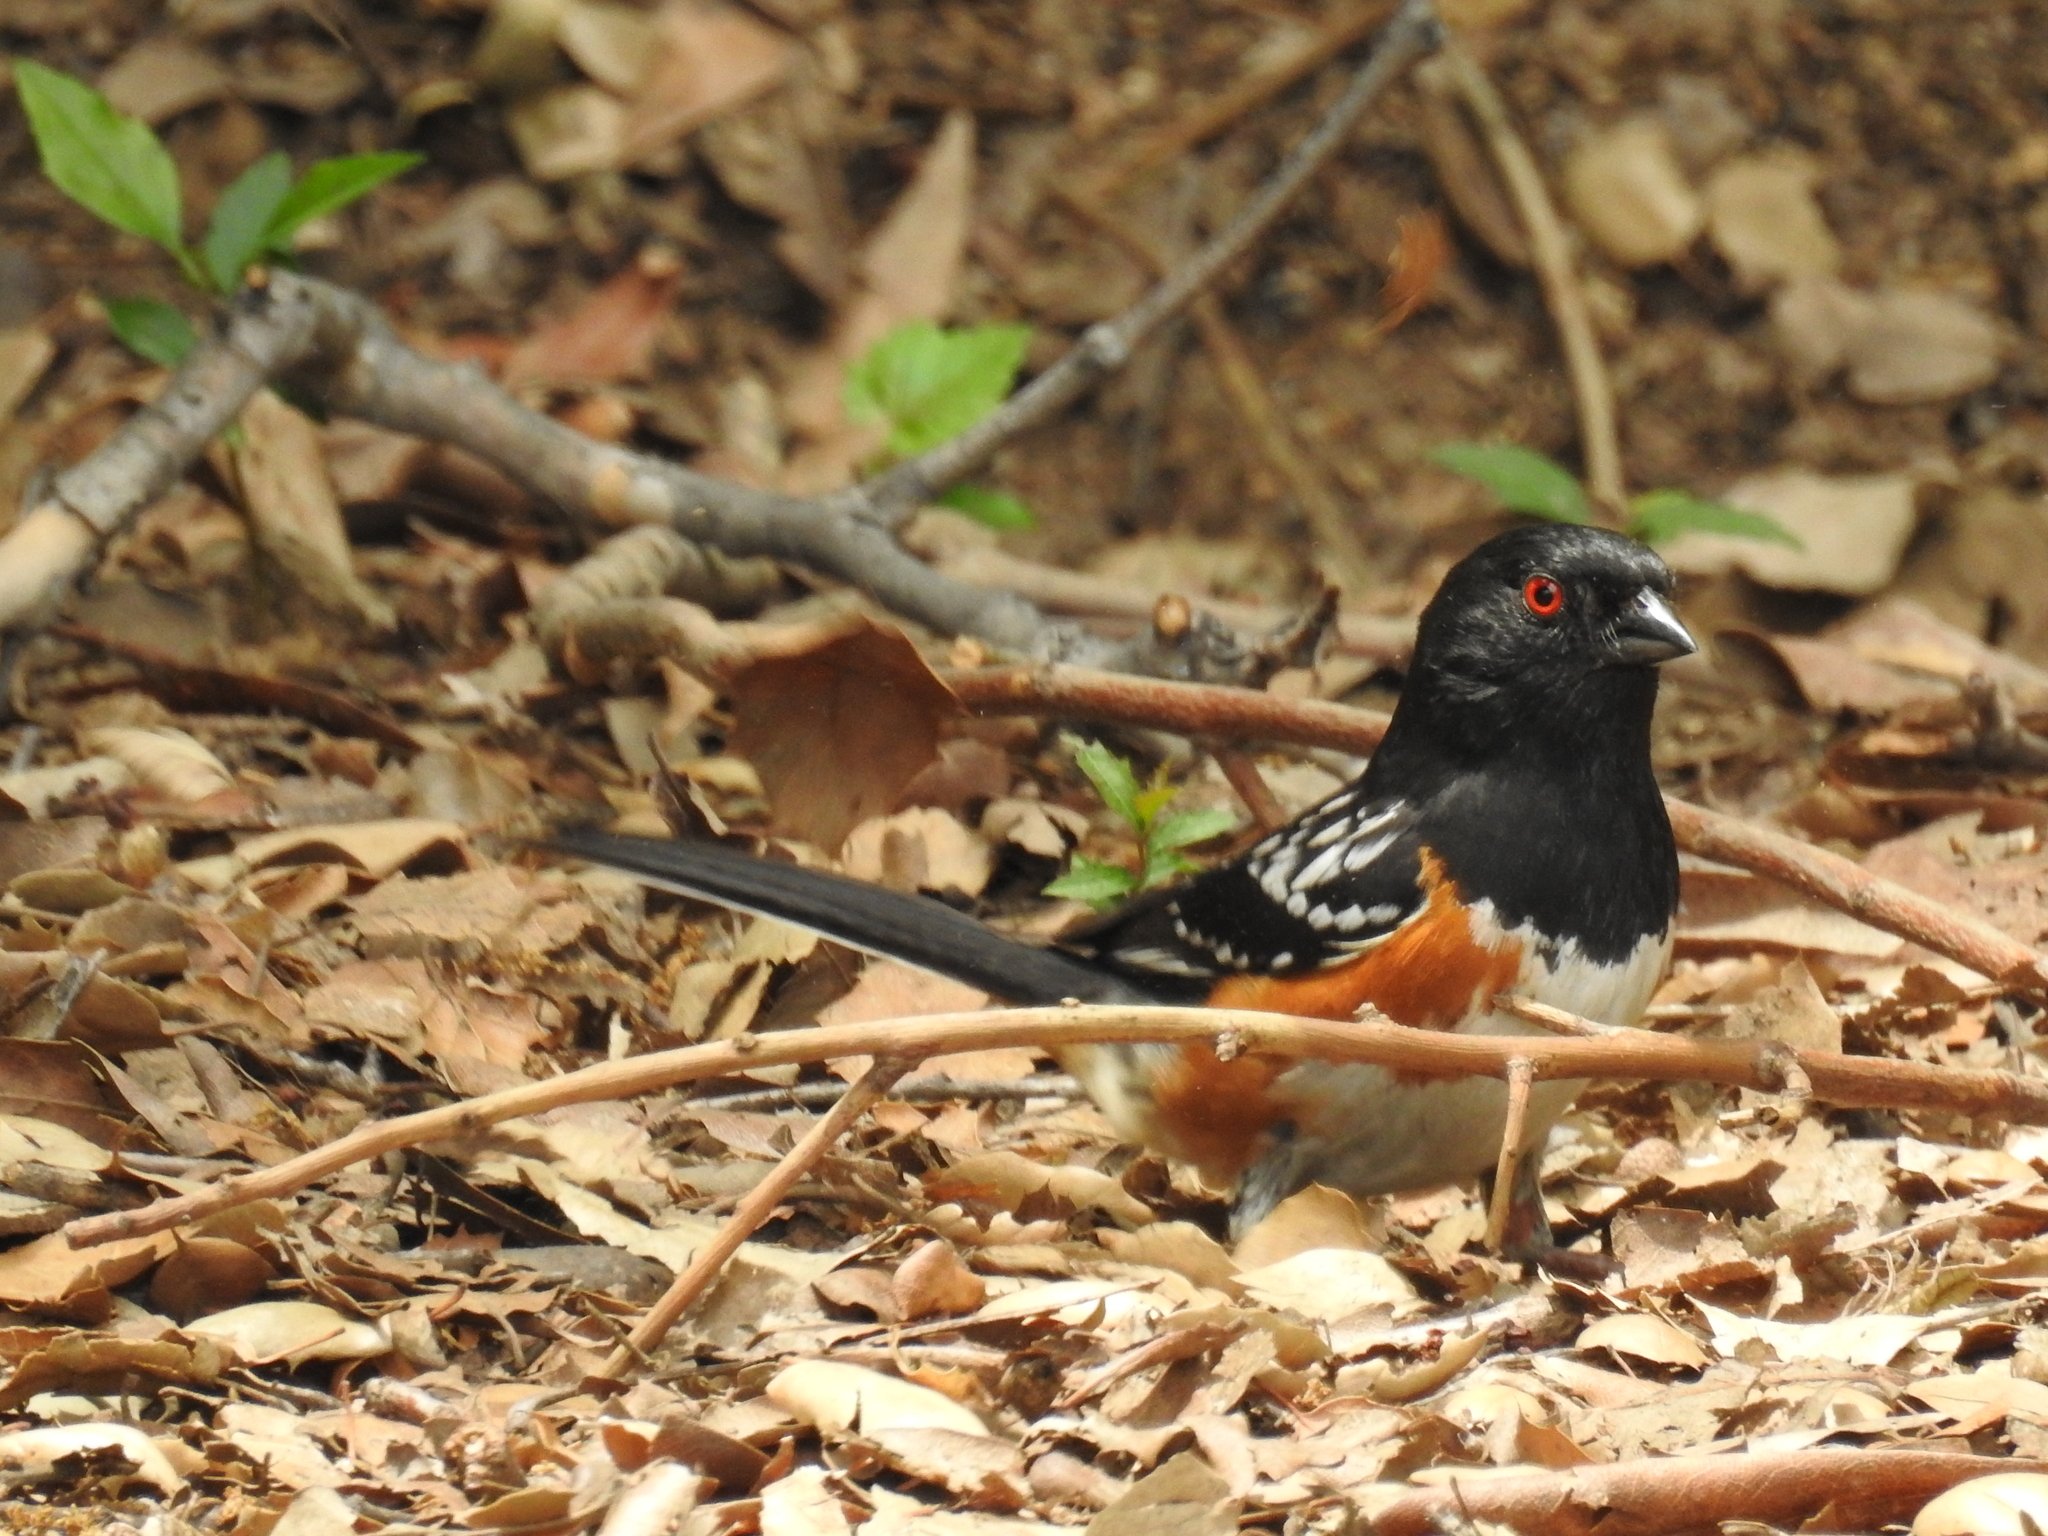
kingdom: Animalia
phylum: Chordata
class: Aves
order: Passeriformes
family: Passerellidae
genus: Pipilo
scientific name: Pipilo maculatus
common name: Spotted towhee
